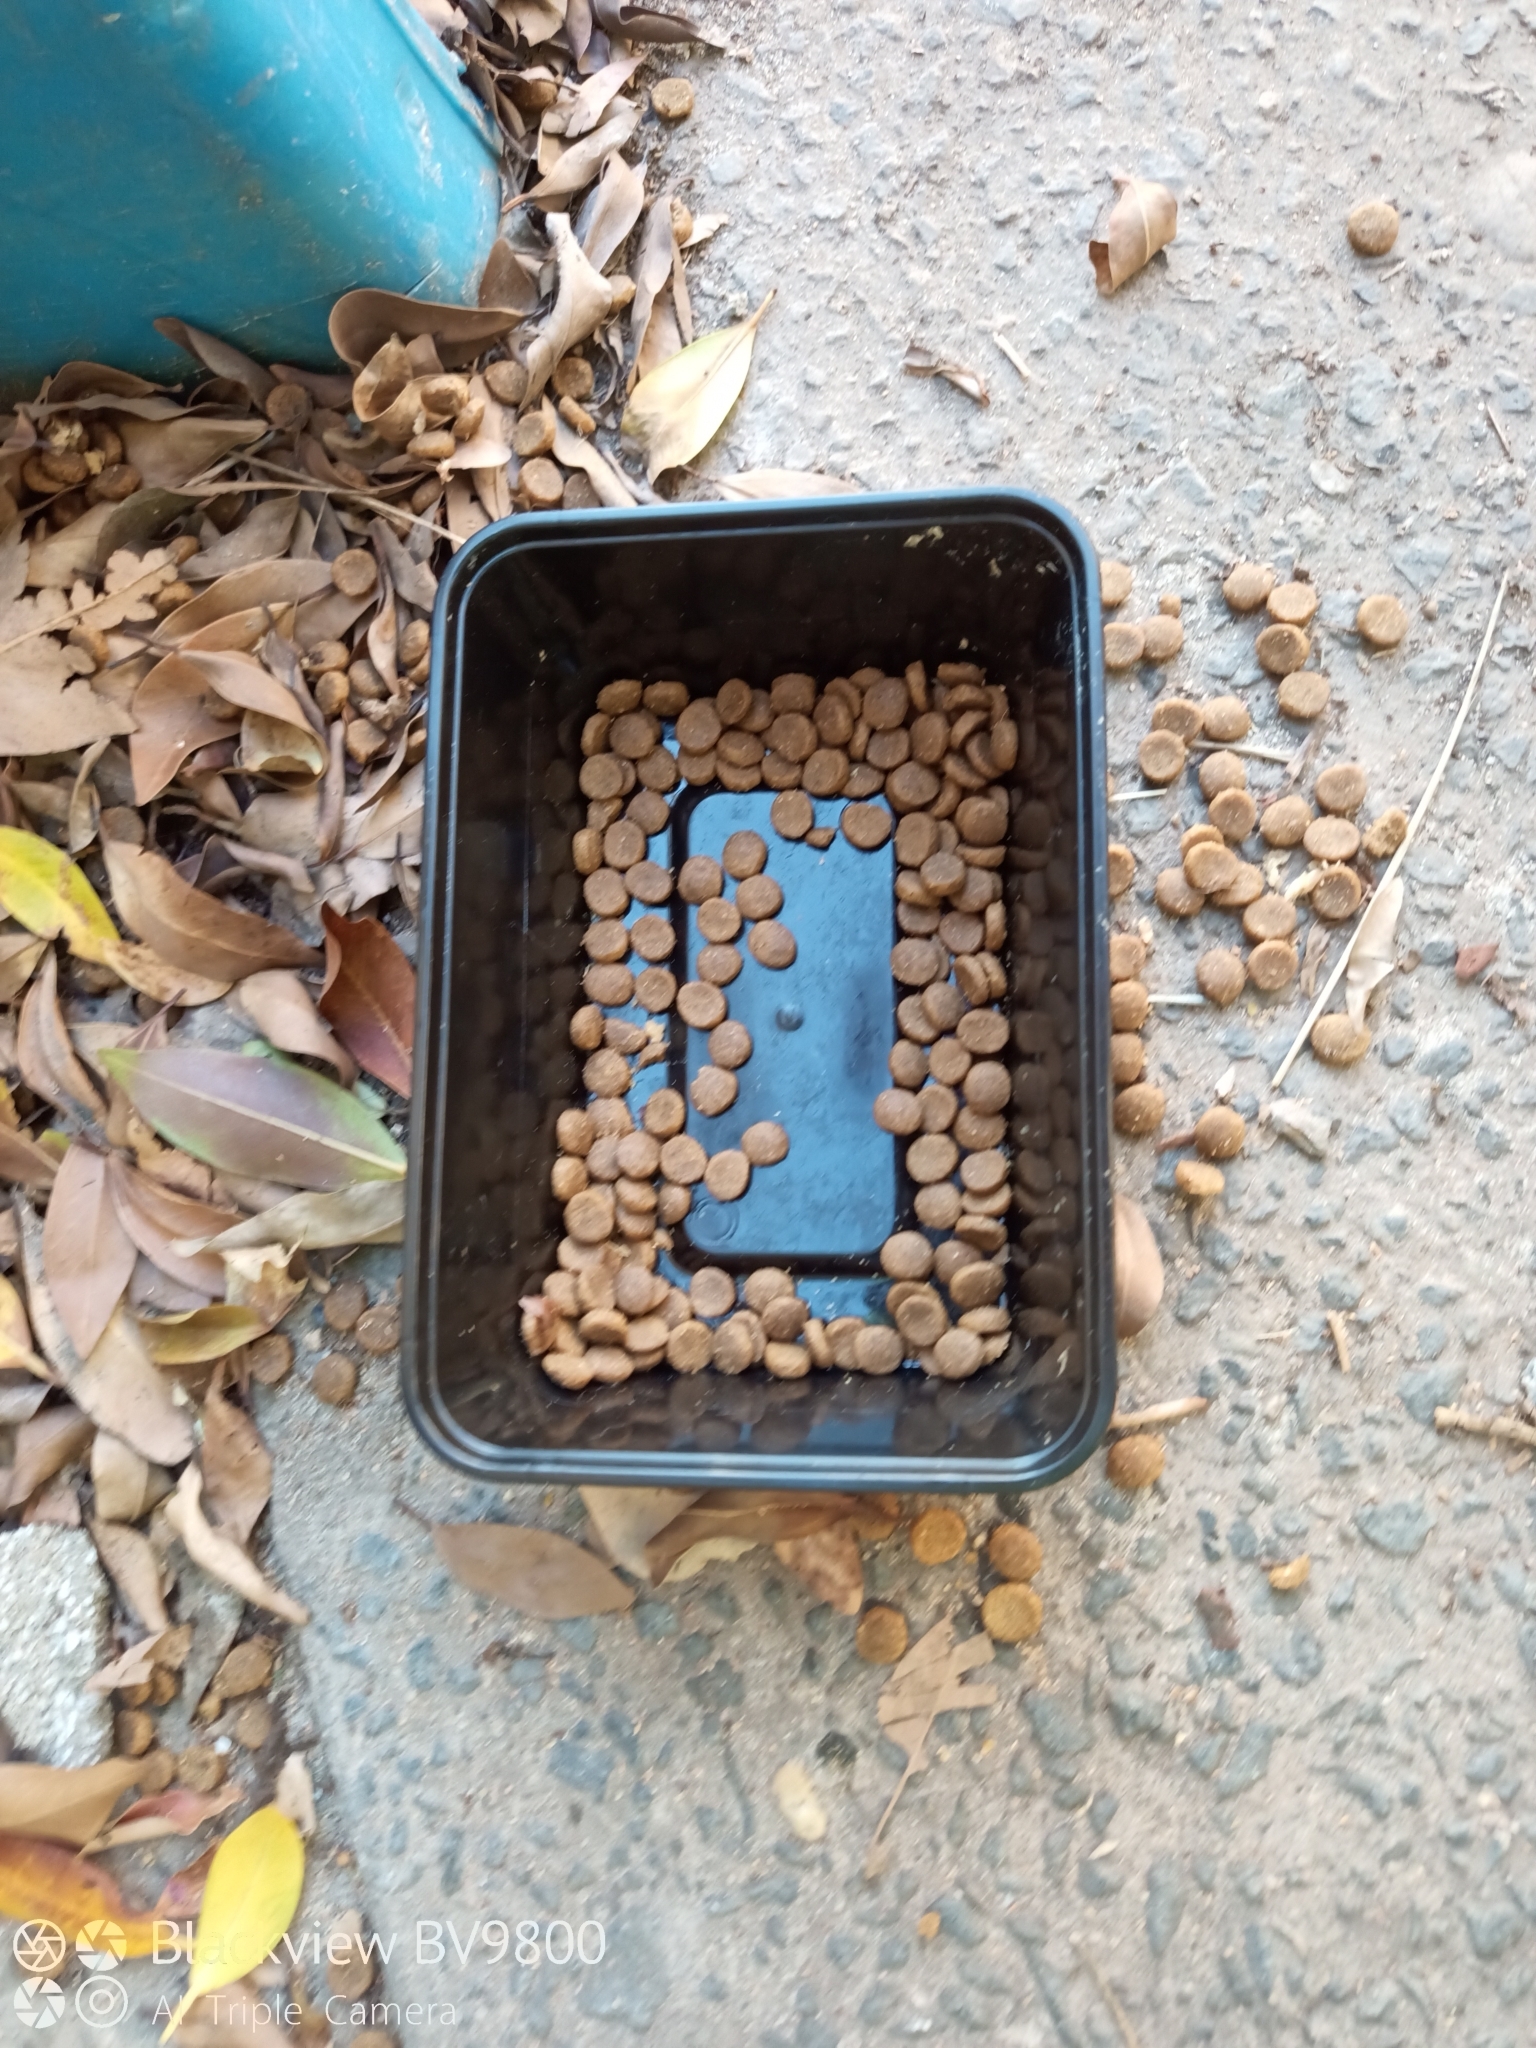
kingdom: Animalia
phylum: Chordata
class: Mammalia
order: Carnivora
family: Felidae
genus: Felis
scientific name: Felis catus
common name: Domestic cat
